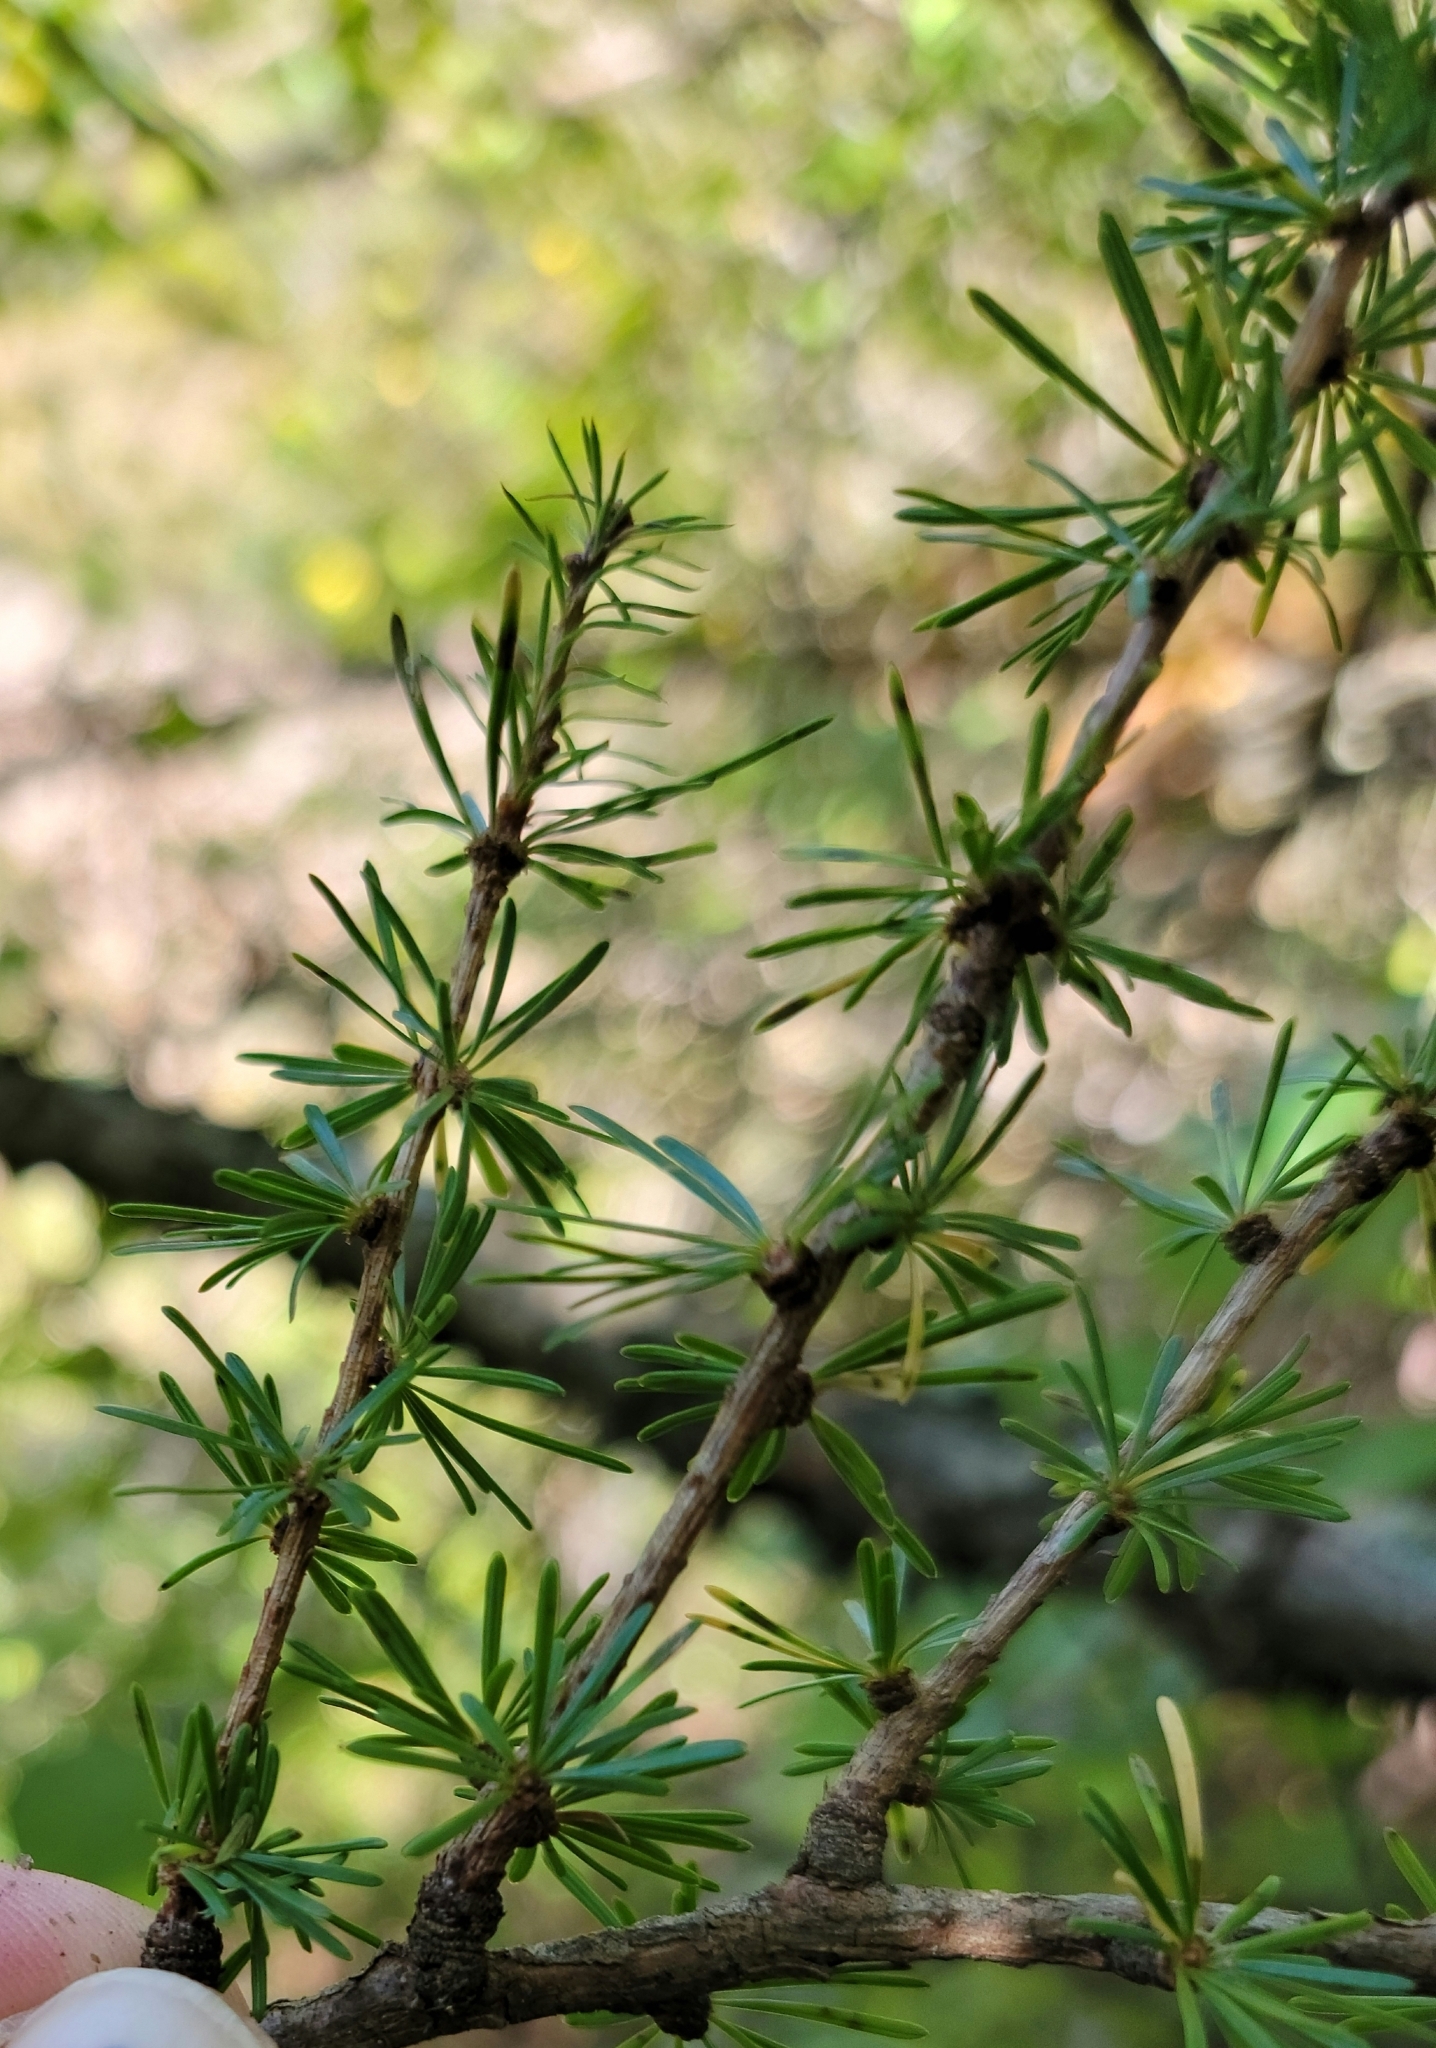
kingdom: Plantae
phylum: Tracheophyta
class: Pinopsida
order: Pinales
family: Pinaceae
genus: Larix
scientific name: Larix decidua
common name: European larch
